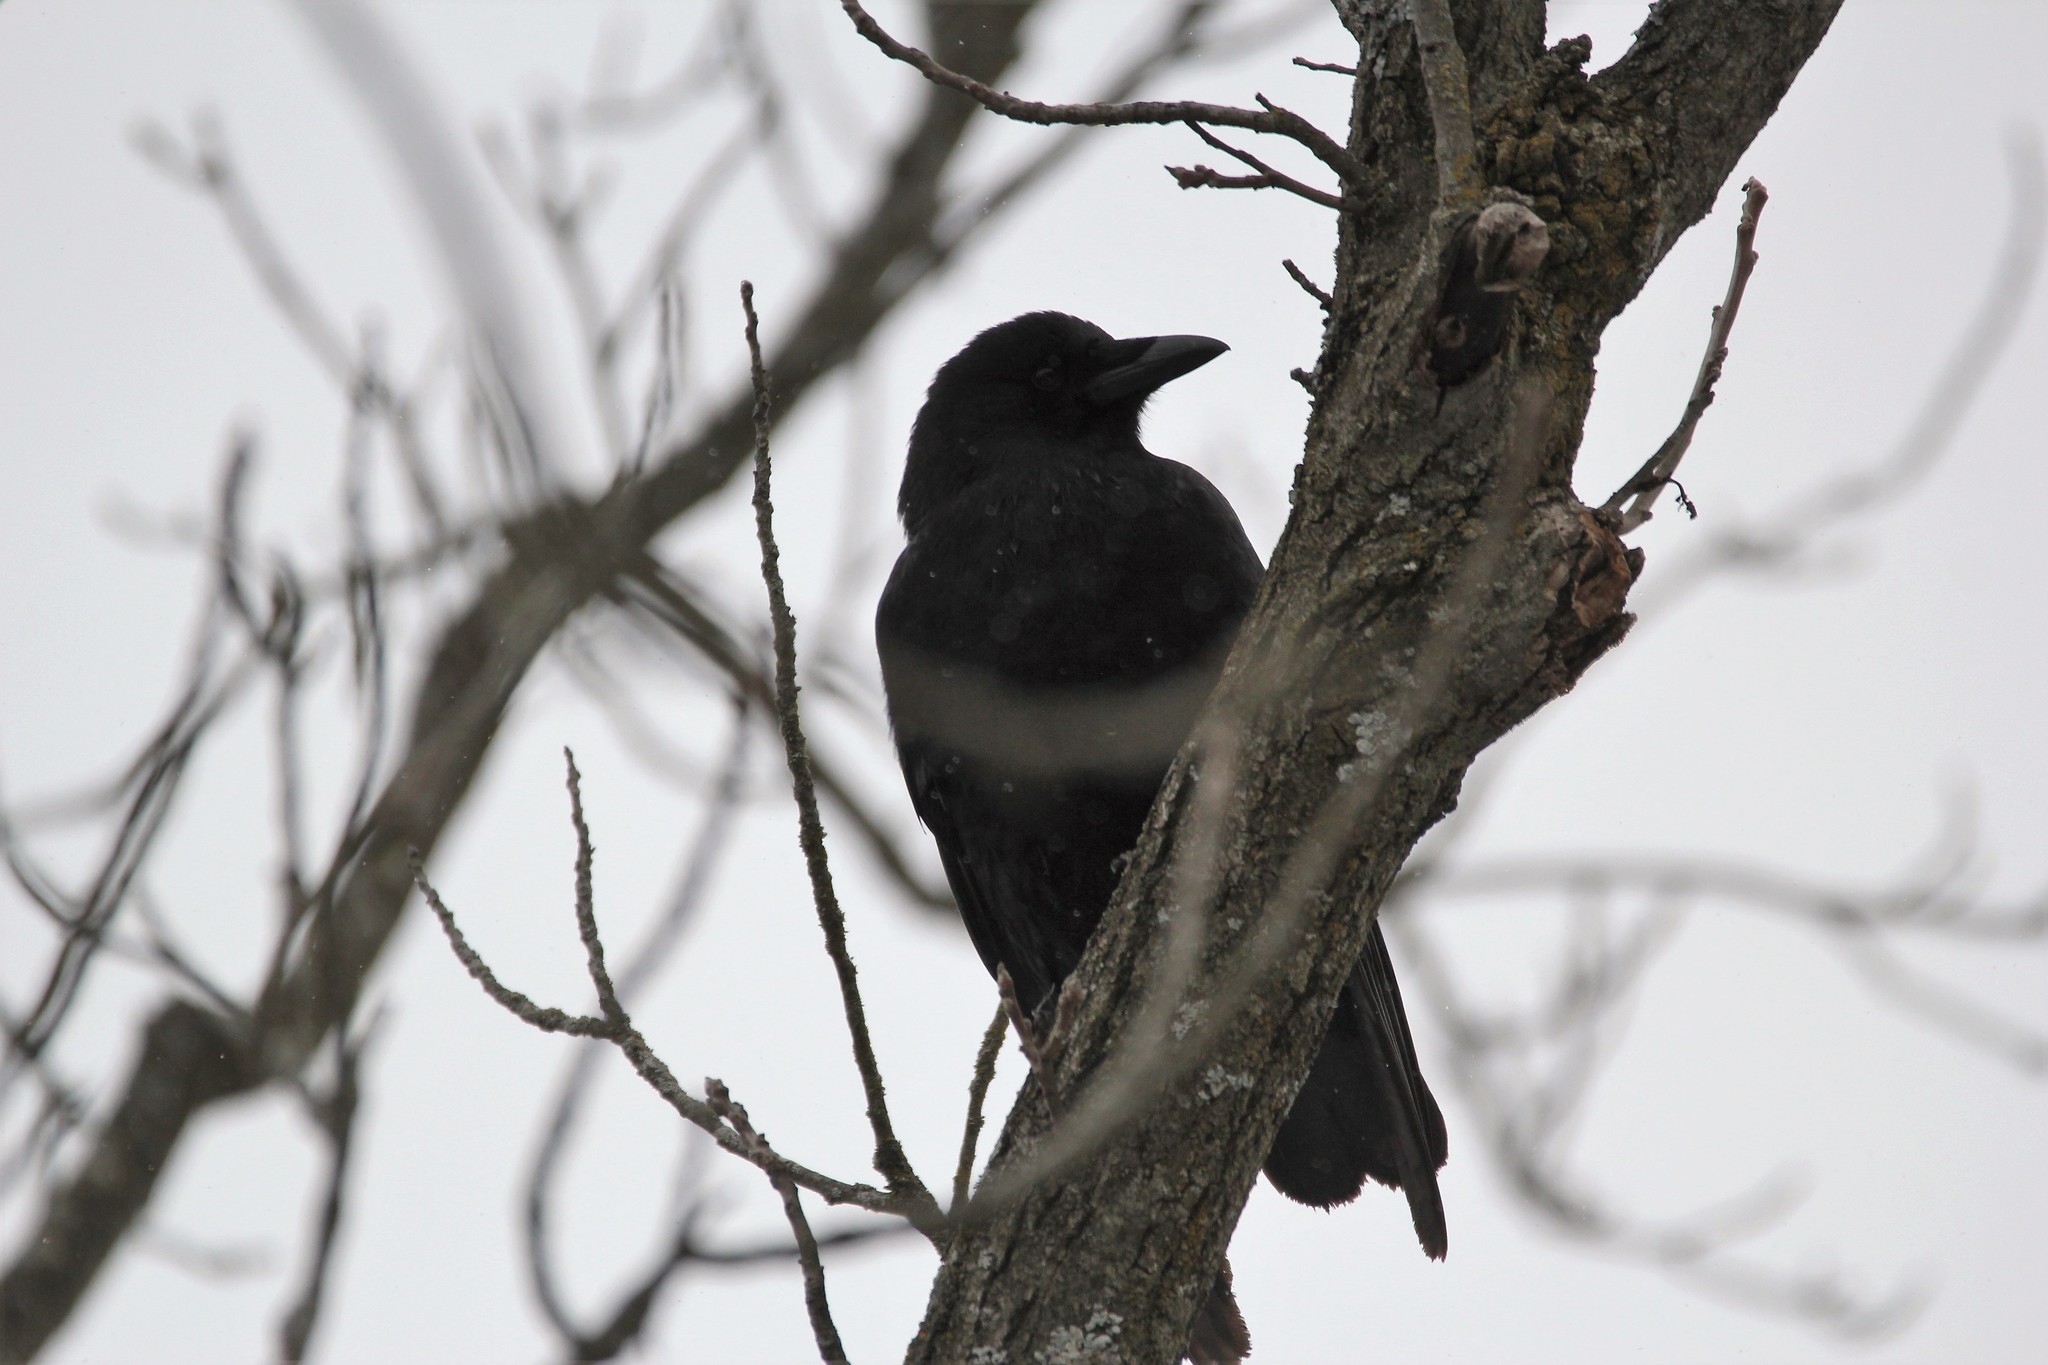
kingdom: Animalia
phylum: Chordata
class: Aves
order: Passeriformes
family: Corvidae
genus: Corvus
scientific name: Corvus brachyrhynchos
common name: American crow
